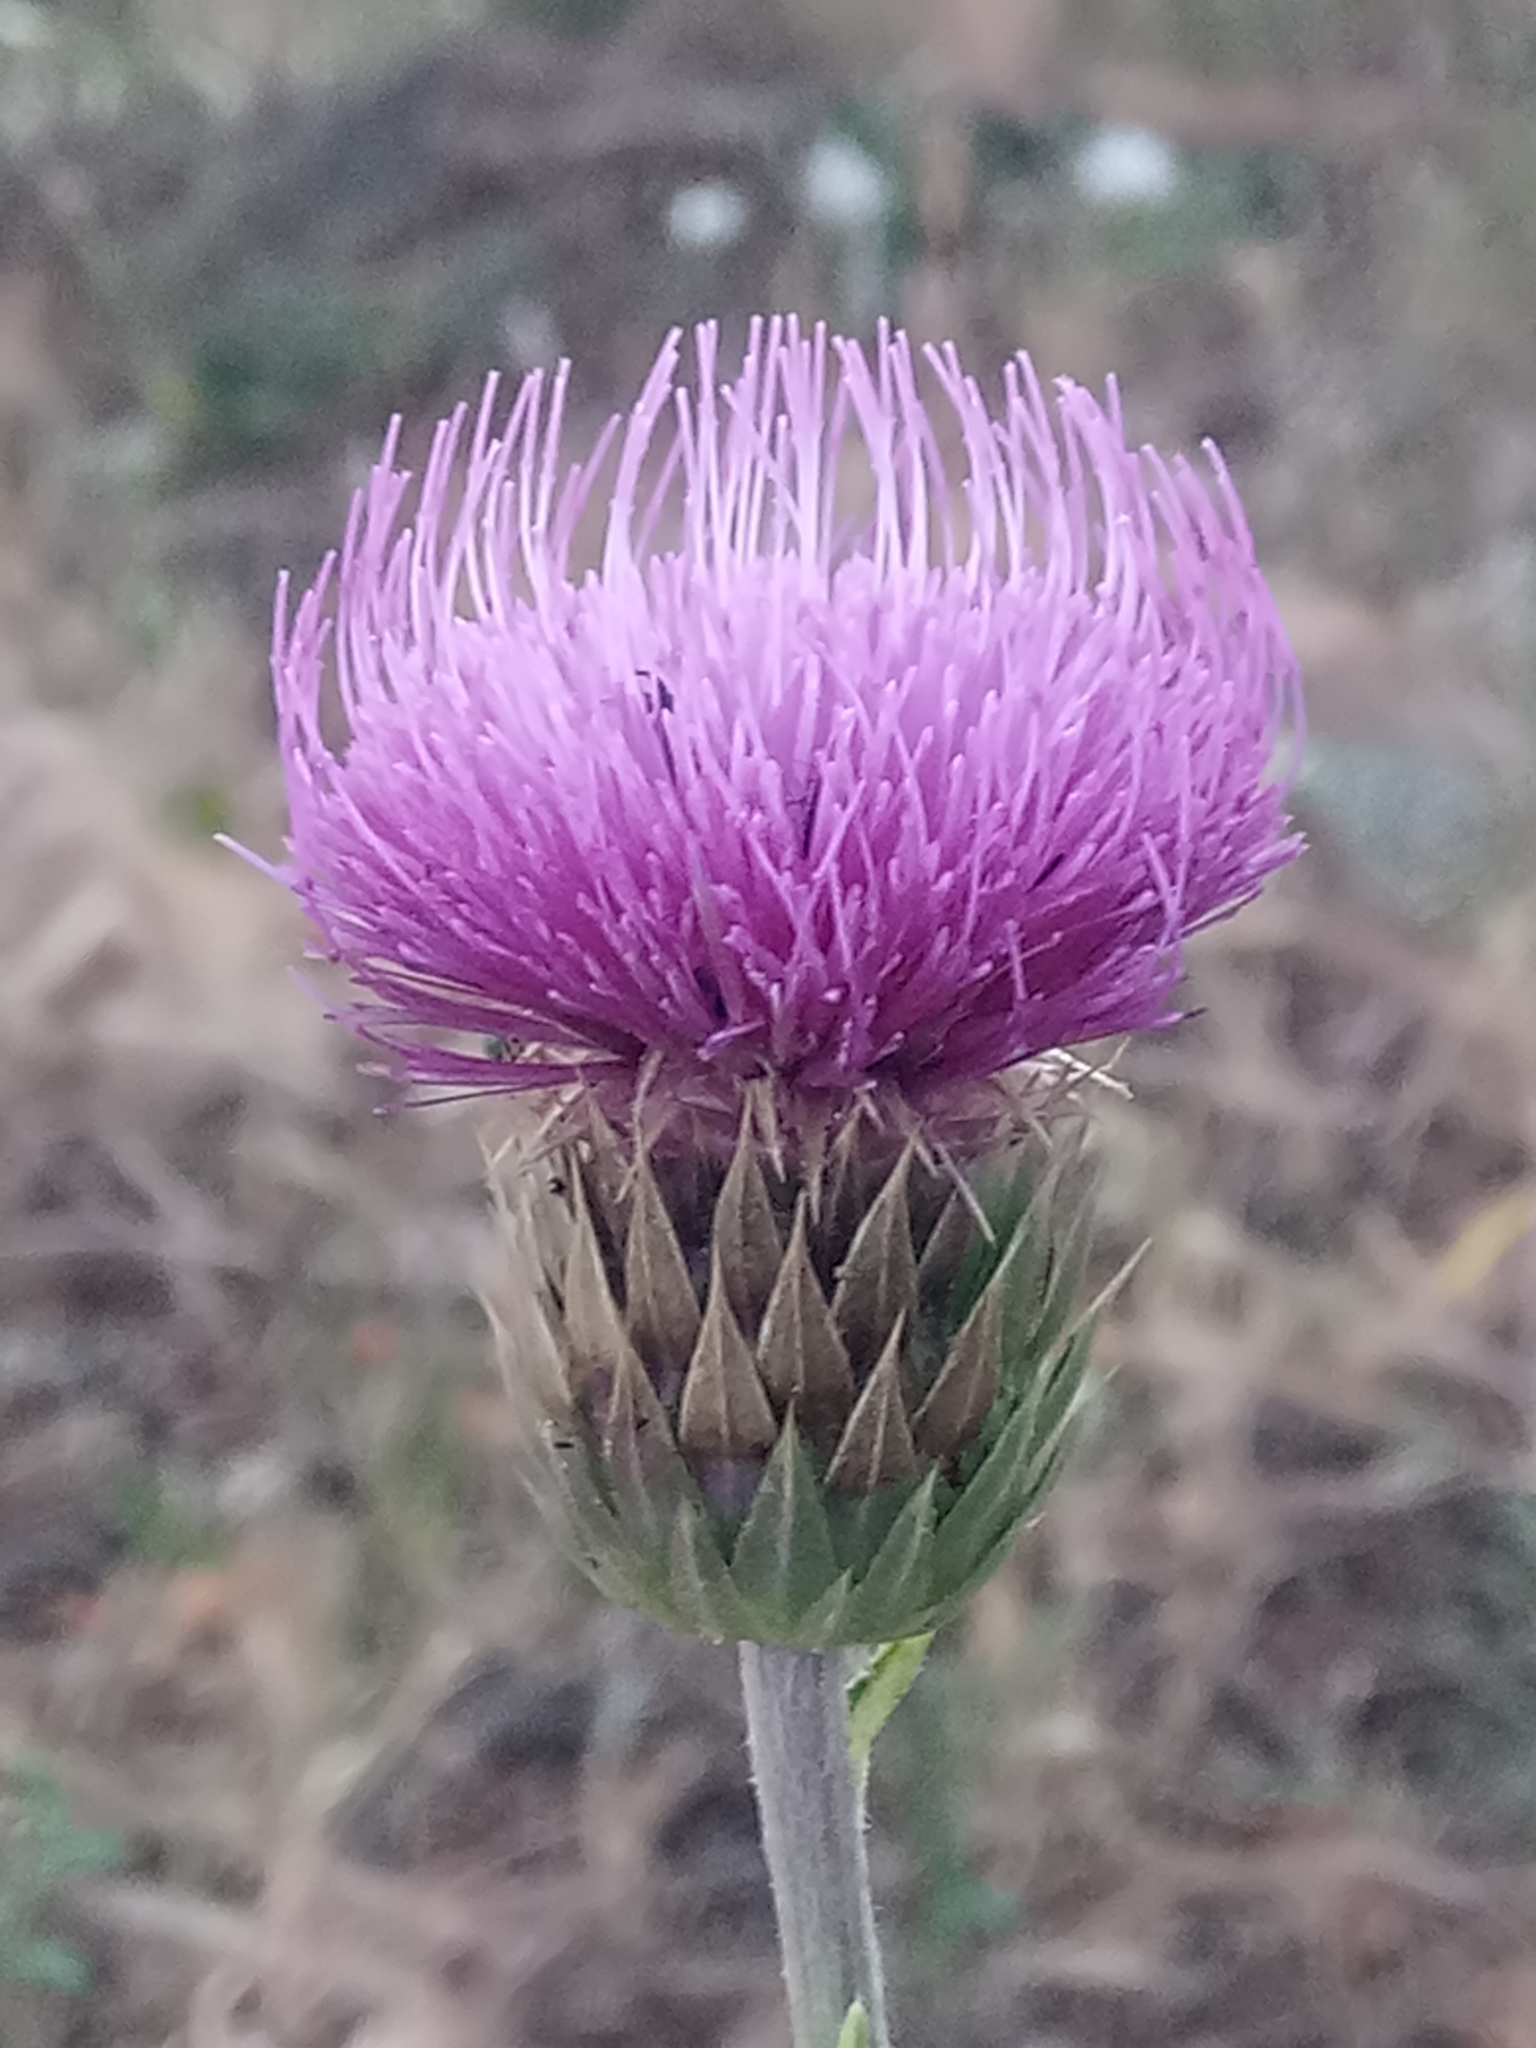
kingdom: Plantae
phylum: Tracheophyta
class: Magnoliopsida
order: Asterales
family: Asteraceae
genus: Carduus
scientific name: Carduus macrocephalus
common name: Giant thistle
